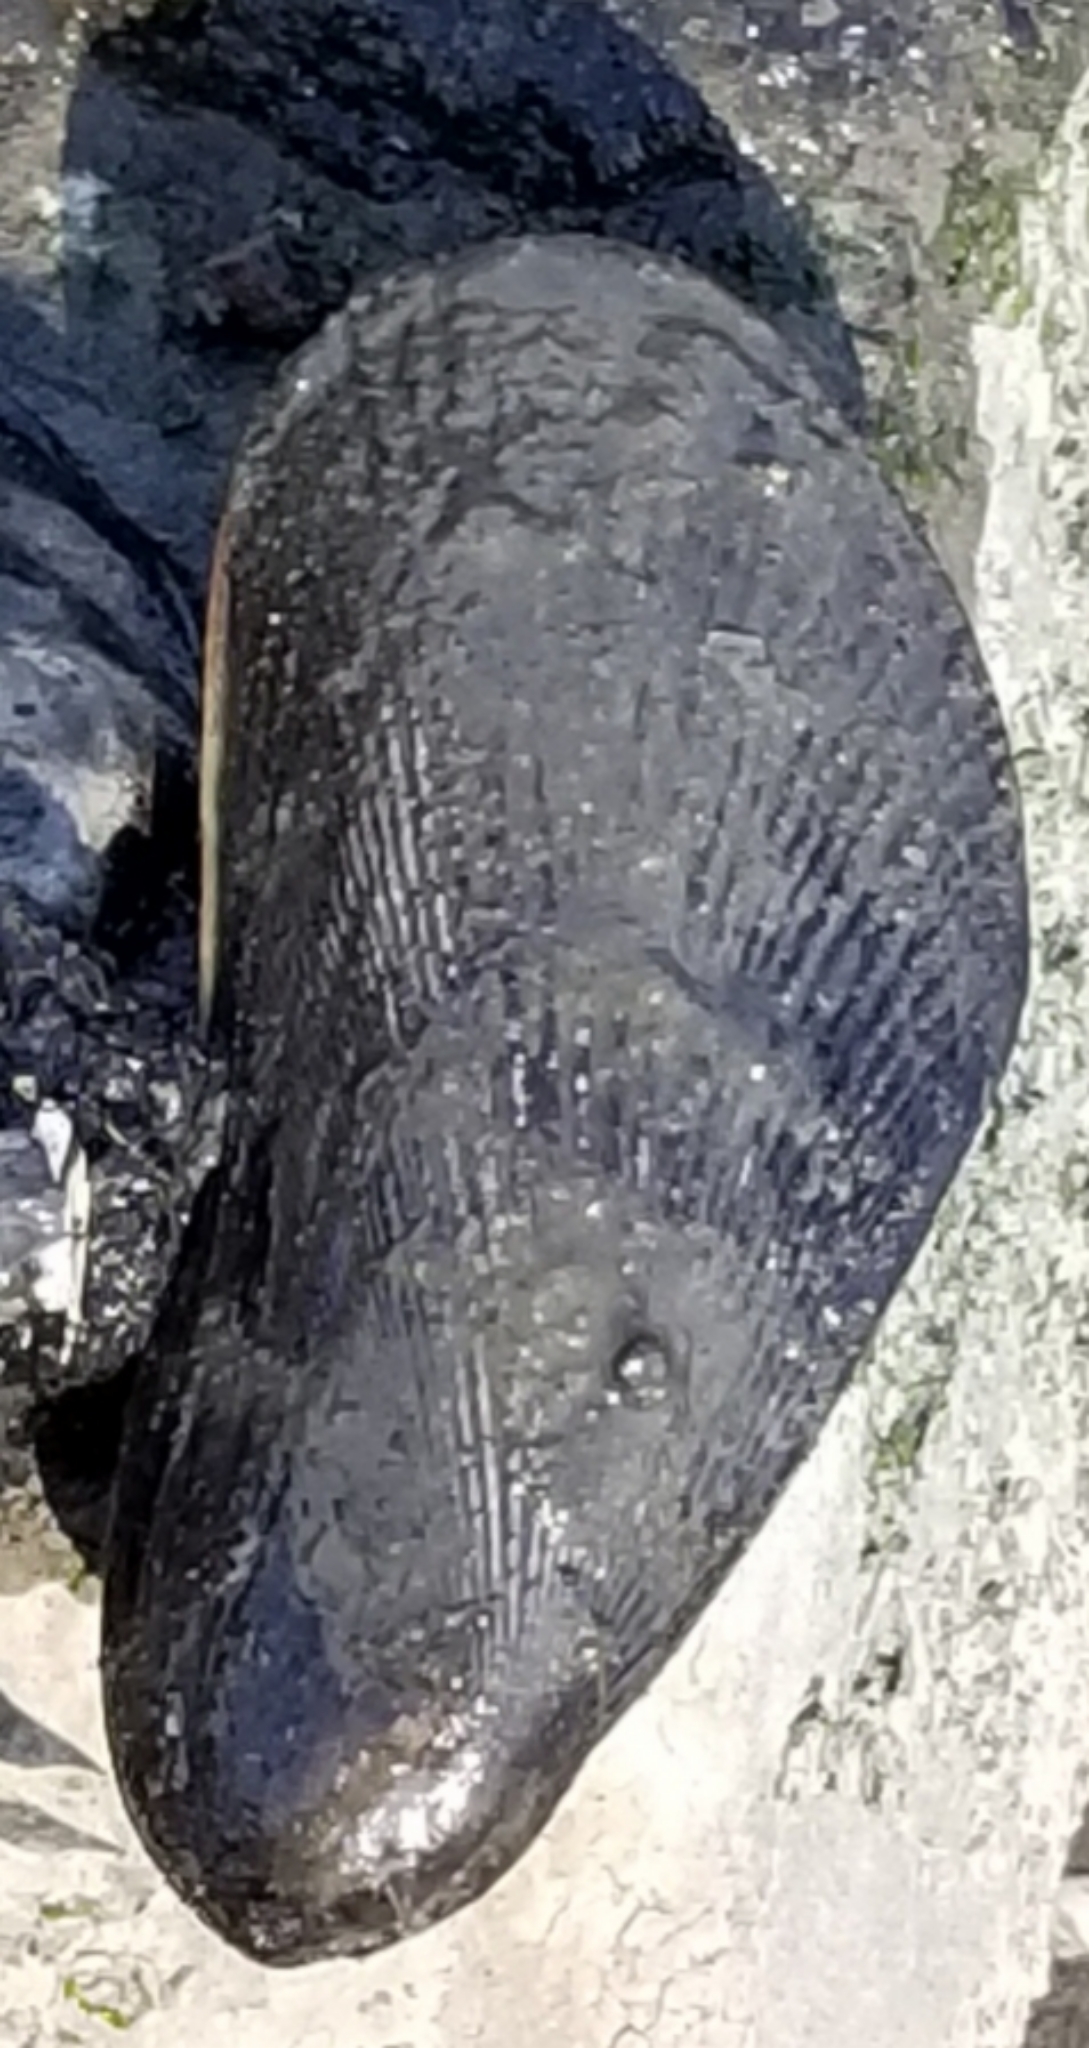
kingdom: Animalia
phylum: Mollusca
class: Bivalvia
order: Mytilida
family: Mytilidae
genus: Geukensia
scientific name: Geukensia demissa
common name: Ribbed mussel
